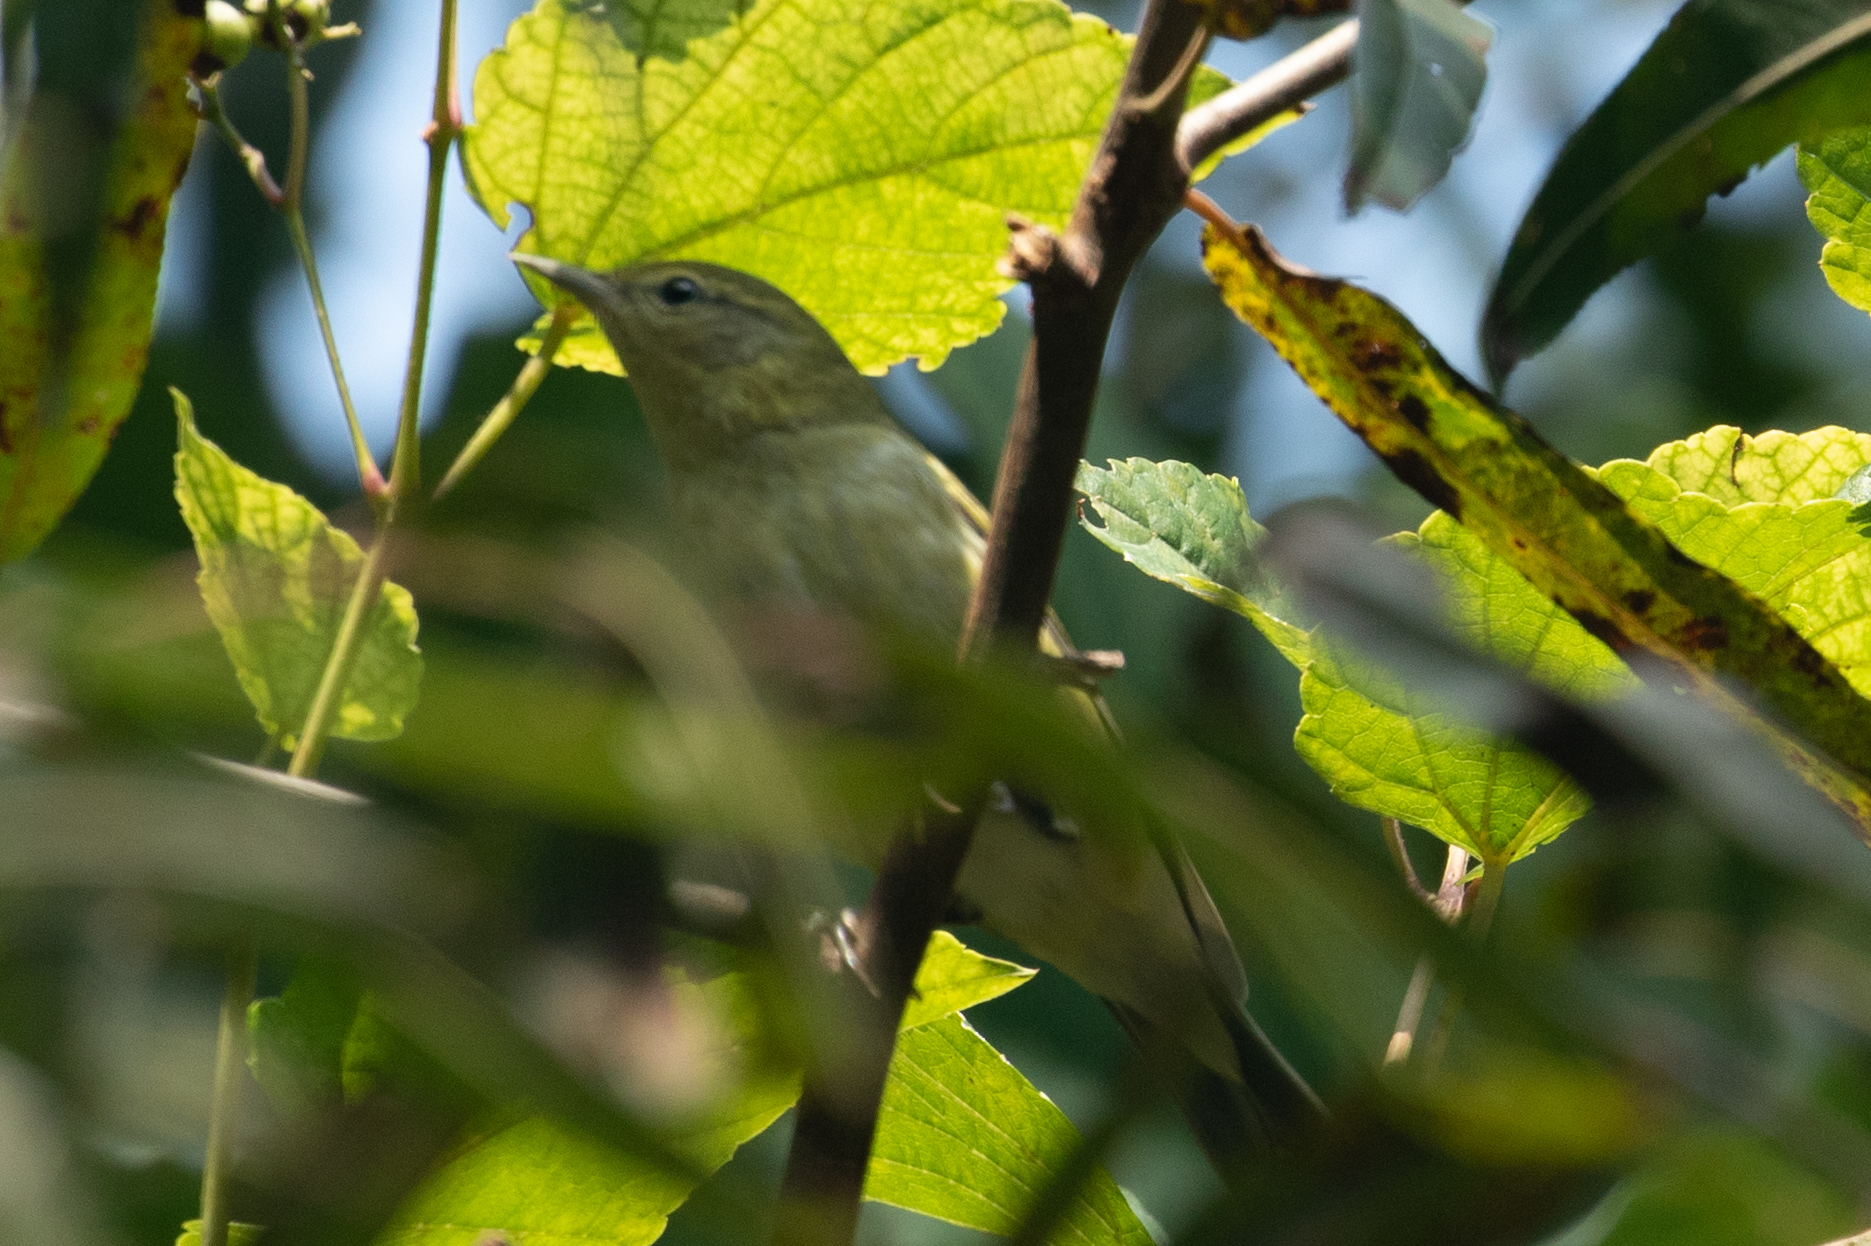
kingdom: Animalia
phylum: Chordata
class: Aves
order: Passeriformes
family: Parulidae
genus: Leiothlypis
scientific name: Leiothlypis peregrina
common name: Tennessee warbler
